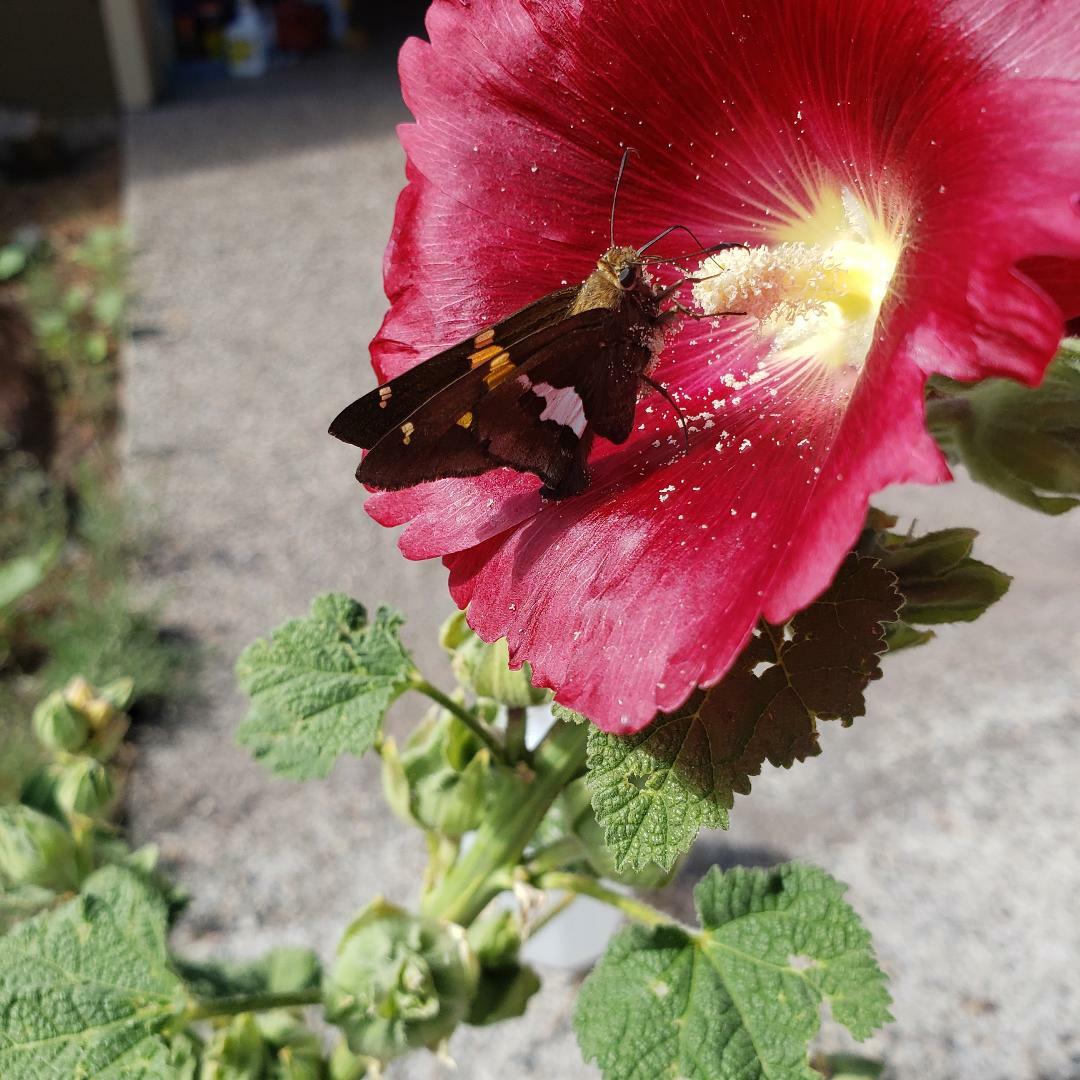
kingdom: Animalia
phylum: Arthropoda
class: Insecta
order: Lepidoptera
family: Hesperiidae
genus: Epargyreus
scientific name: Epargyreus clarus
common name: Silver-spotted skipper
